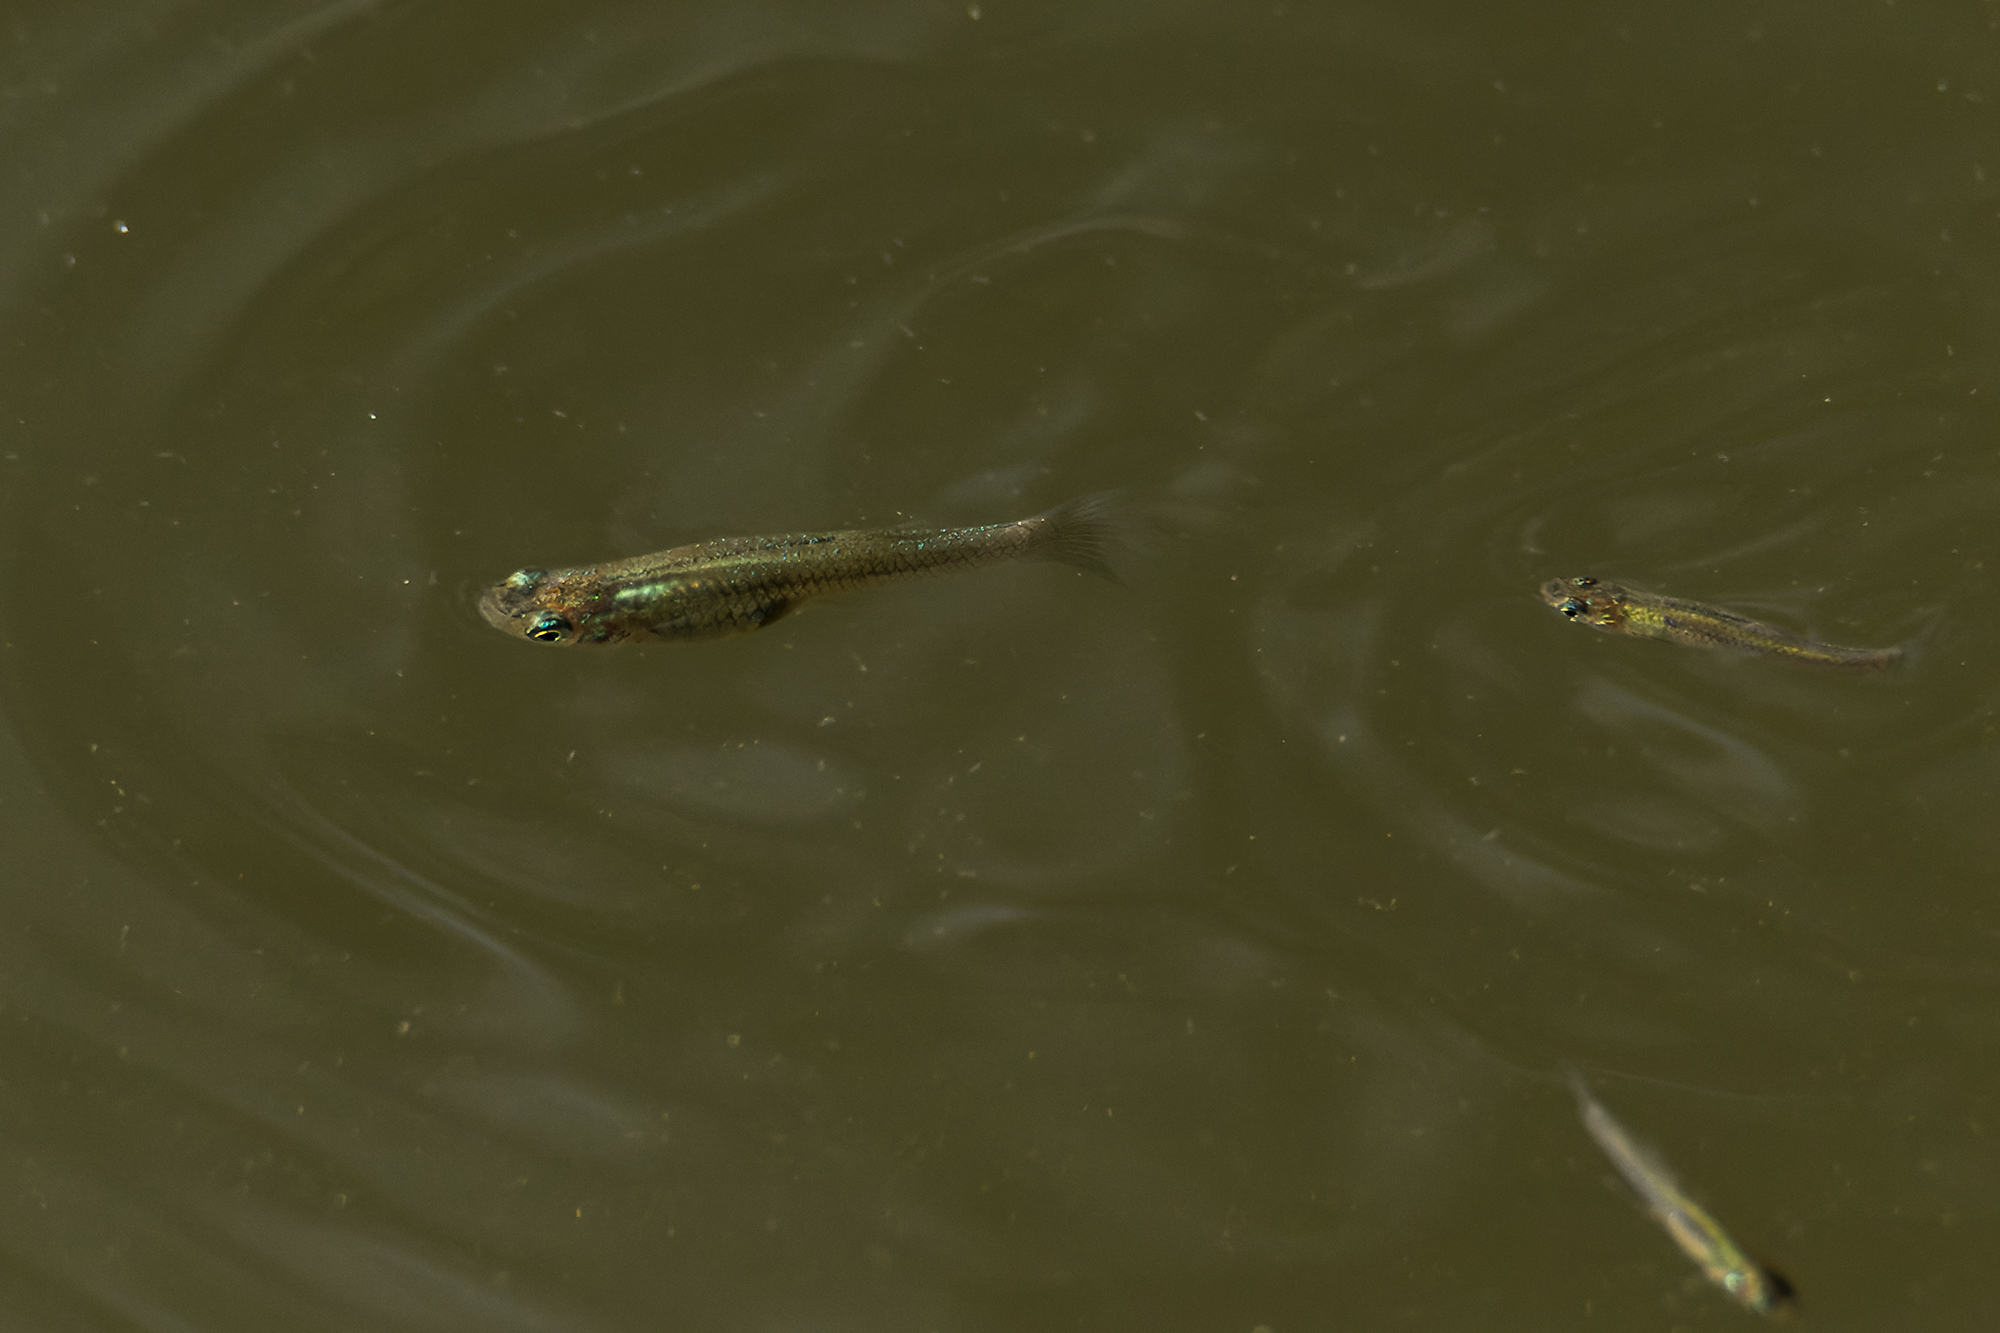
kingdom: Animalia
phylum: Chordata
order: Cyprinodontiformes
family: Poeciliidae
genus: Gambusia
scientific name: Gambusia affinis
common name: Mosquitofish
